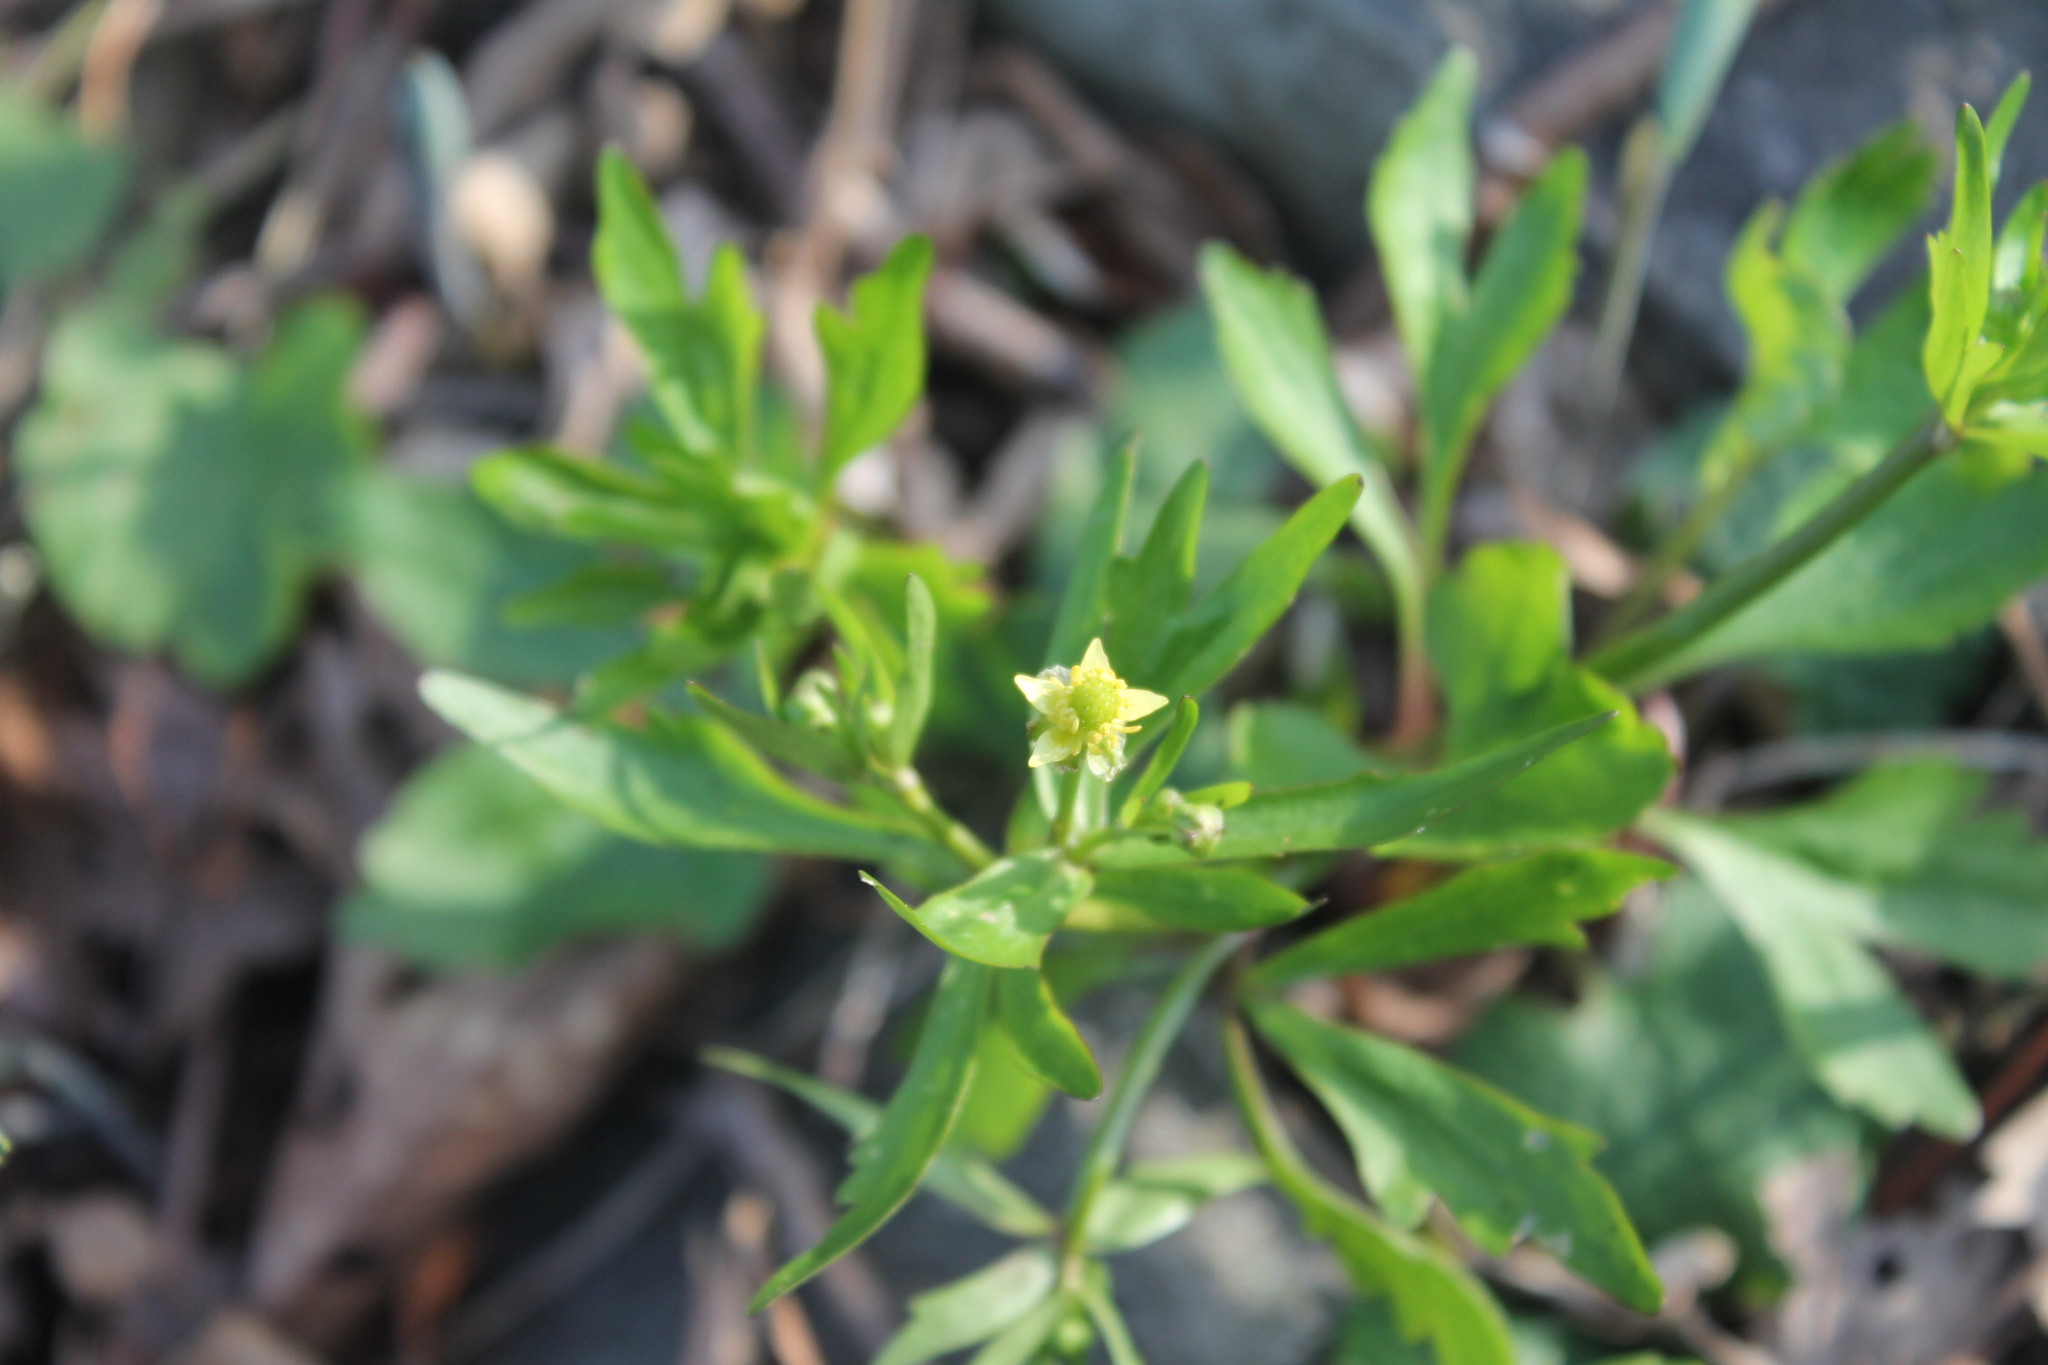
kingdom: Plantae
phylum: Tracheophyta
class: Magnoliopsida
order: Ranunculales
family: Ranunculaceae
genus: Ranunculus
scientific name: Ranunculus abortivus
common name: Early wood buttercup
